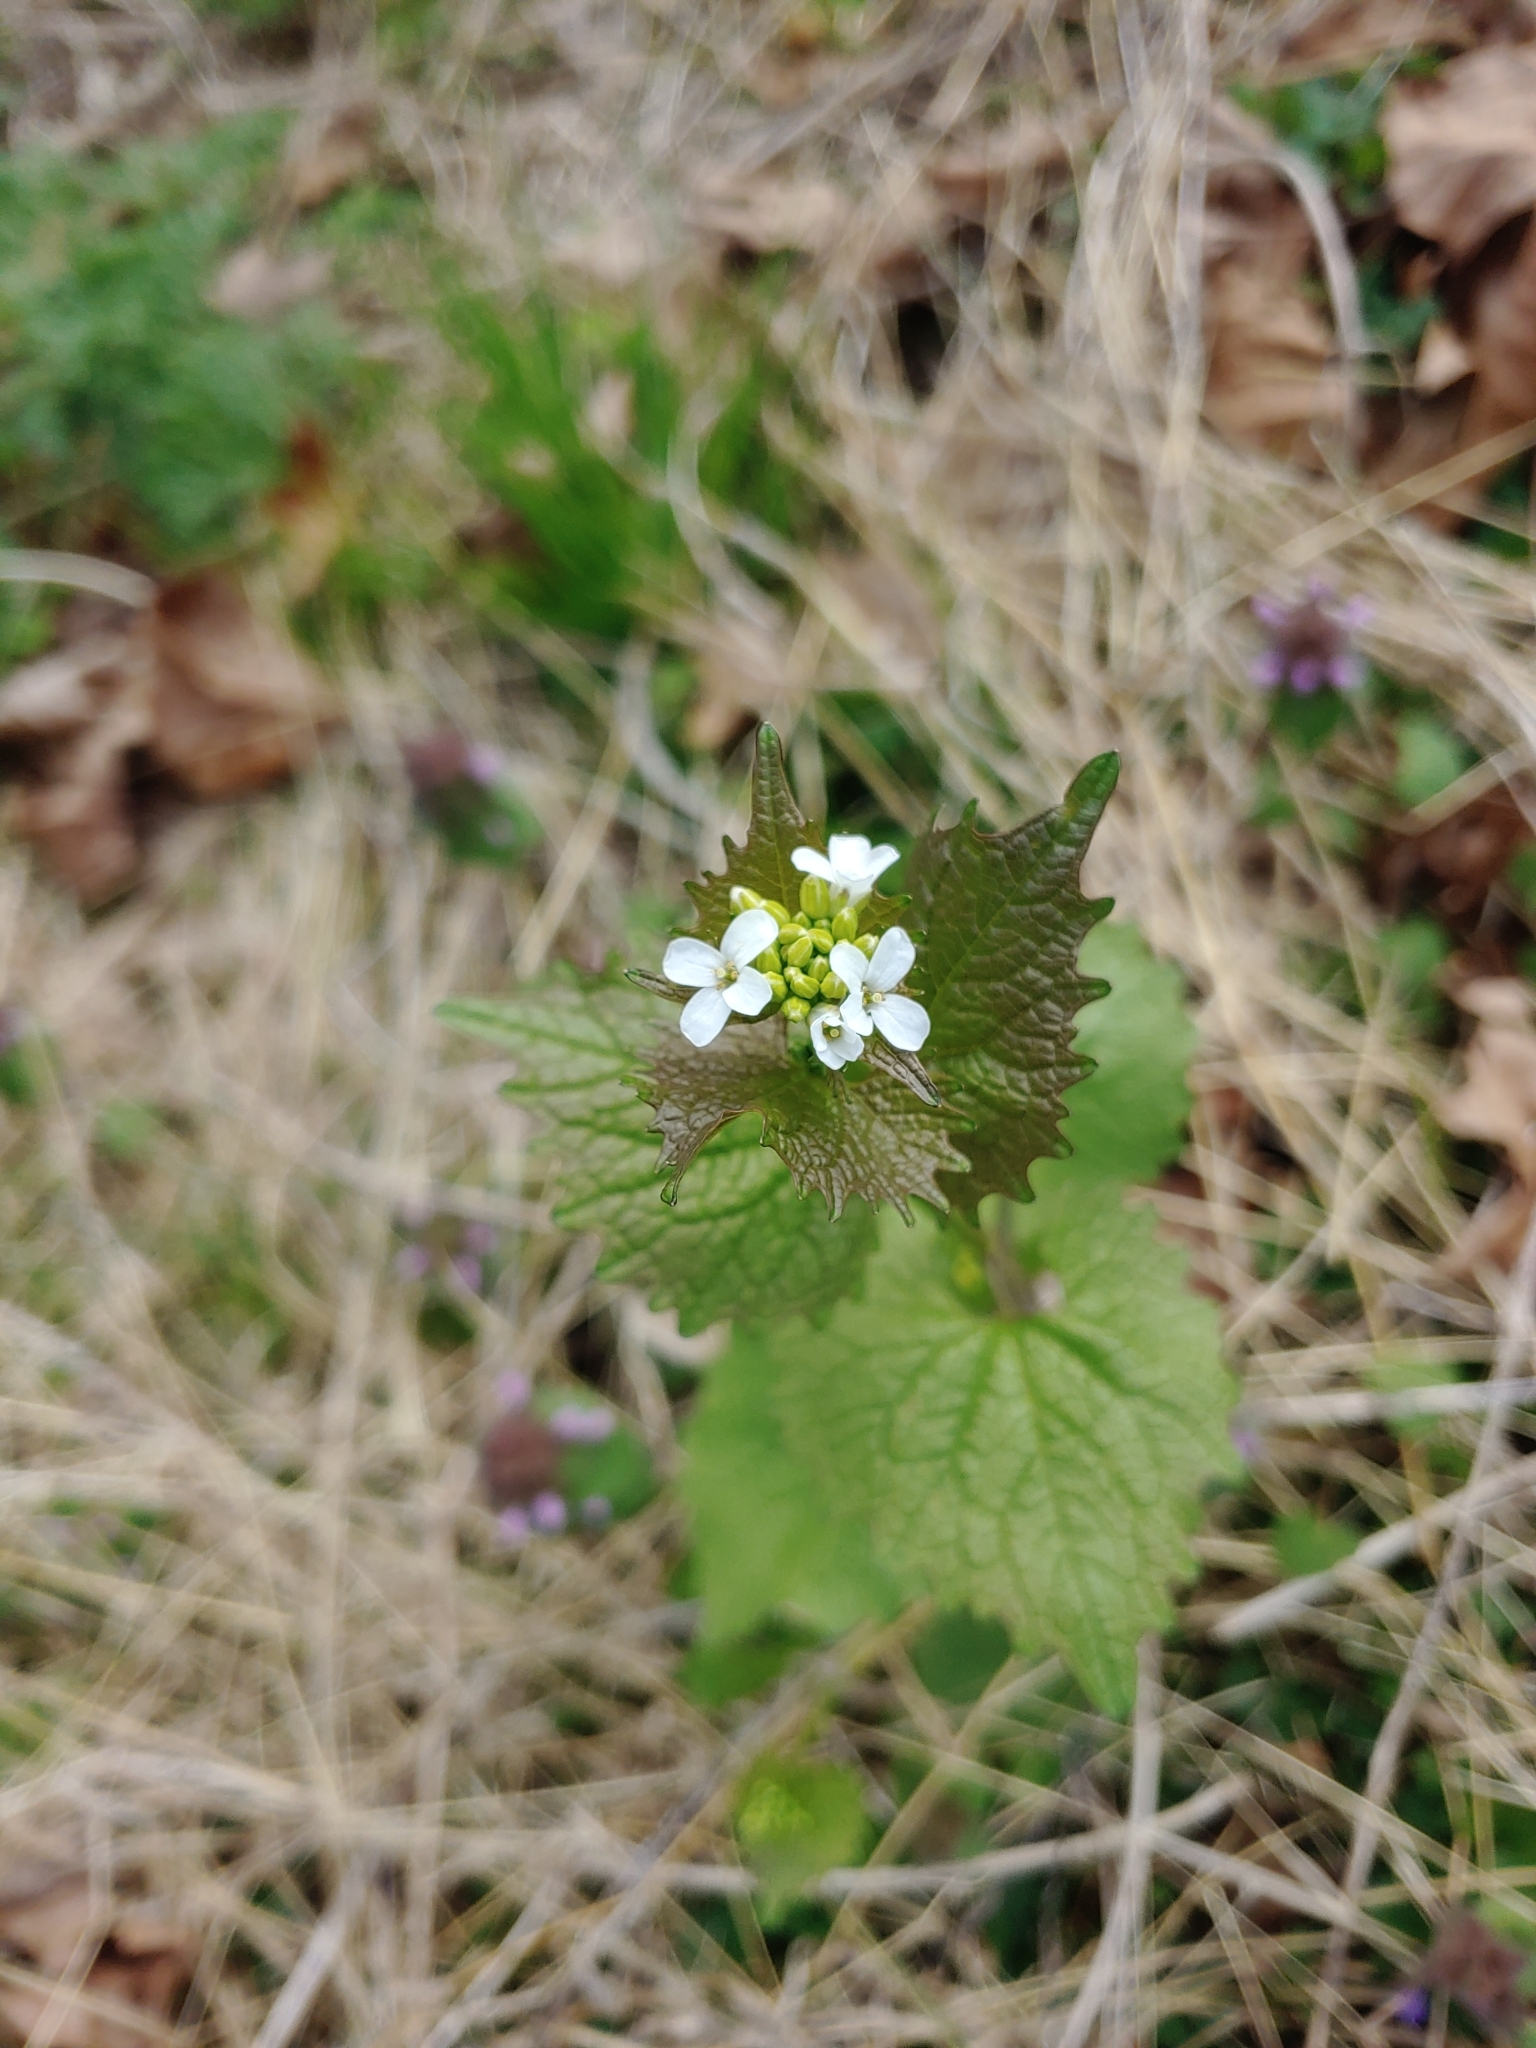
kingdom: Plantae
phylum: Tracheophyta
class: Magnoliopsida
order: Brassicales
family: Brassicaceae
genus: Alliaria
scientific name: Alliaria petiolata
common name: Garlic mustard
